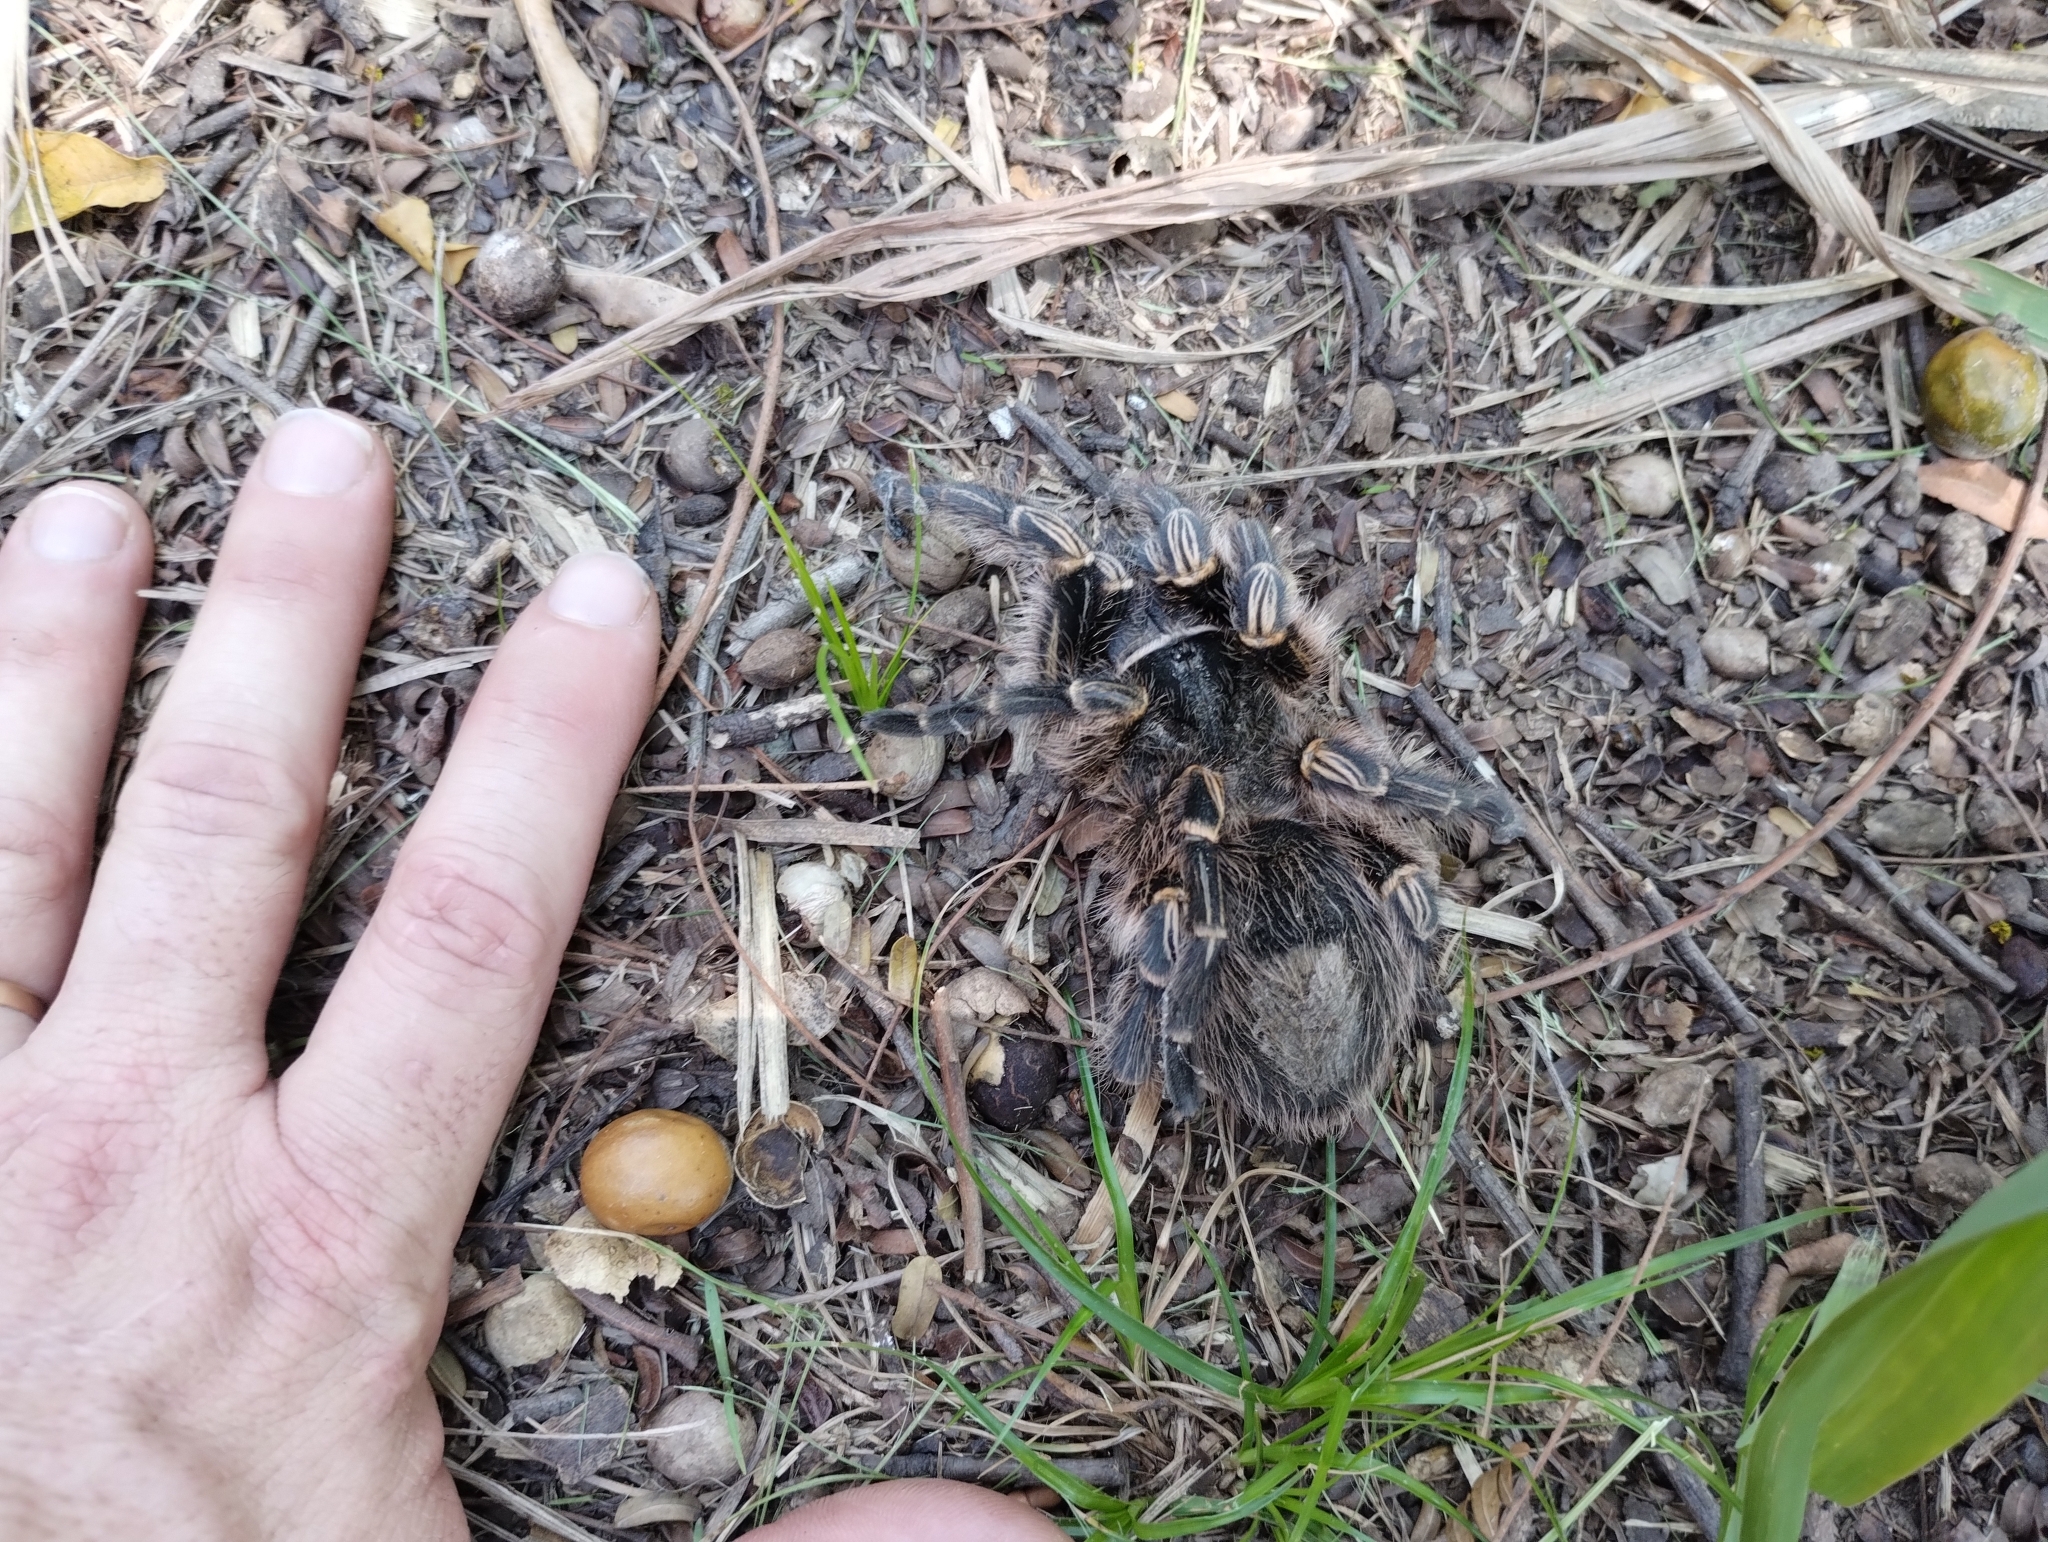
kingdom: Animalia
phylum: Arthropoda
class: Arachnida
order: Araneae
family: Theraphosidae
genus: Grammostola
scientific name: Grammostola pulchripes
